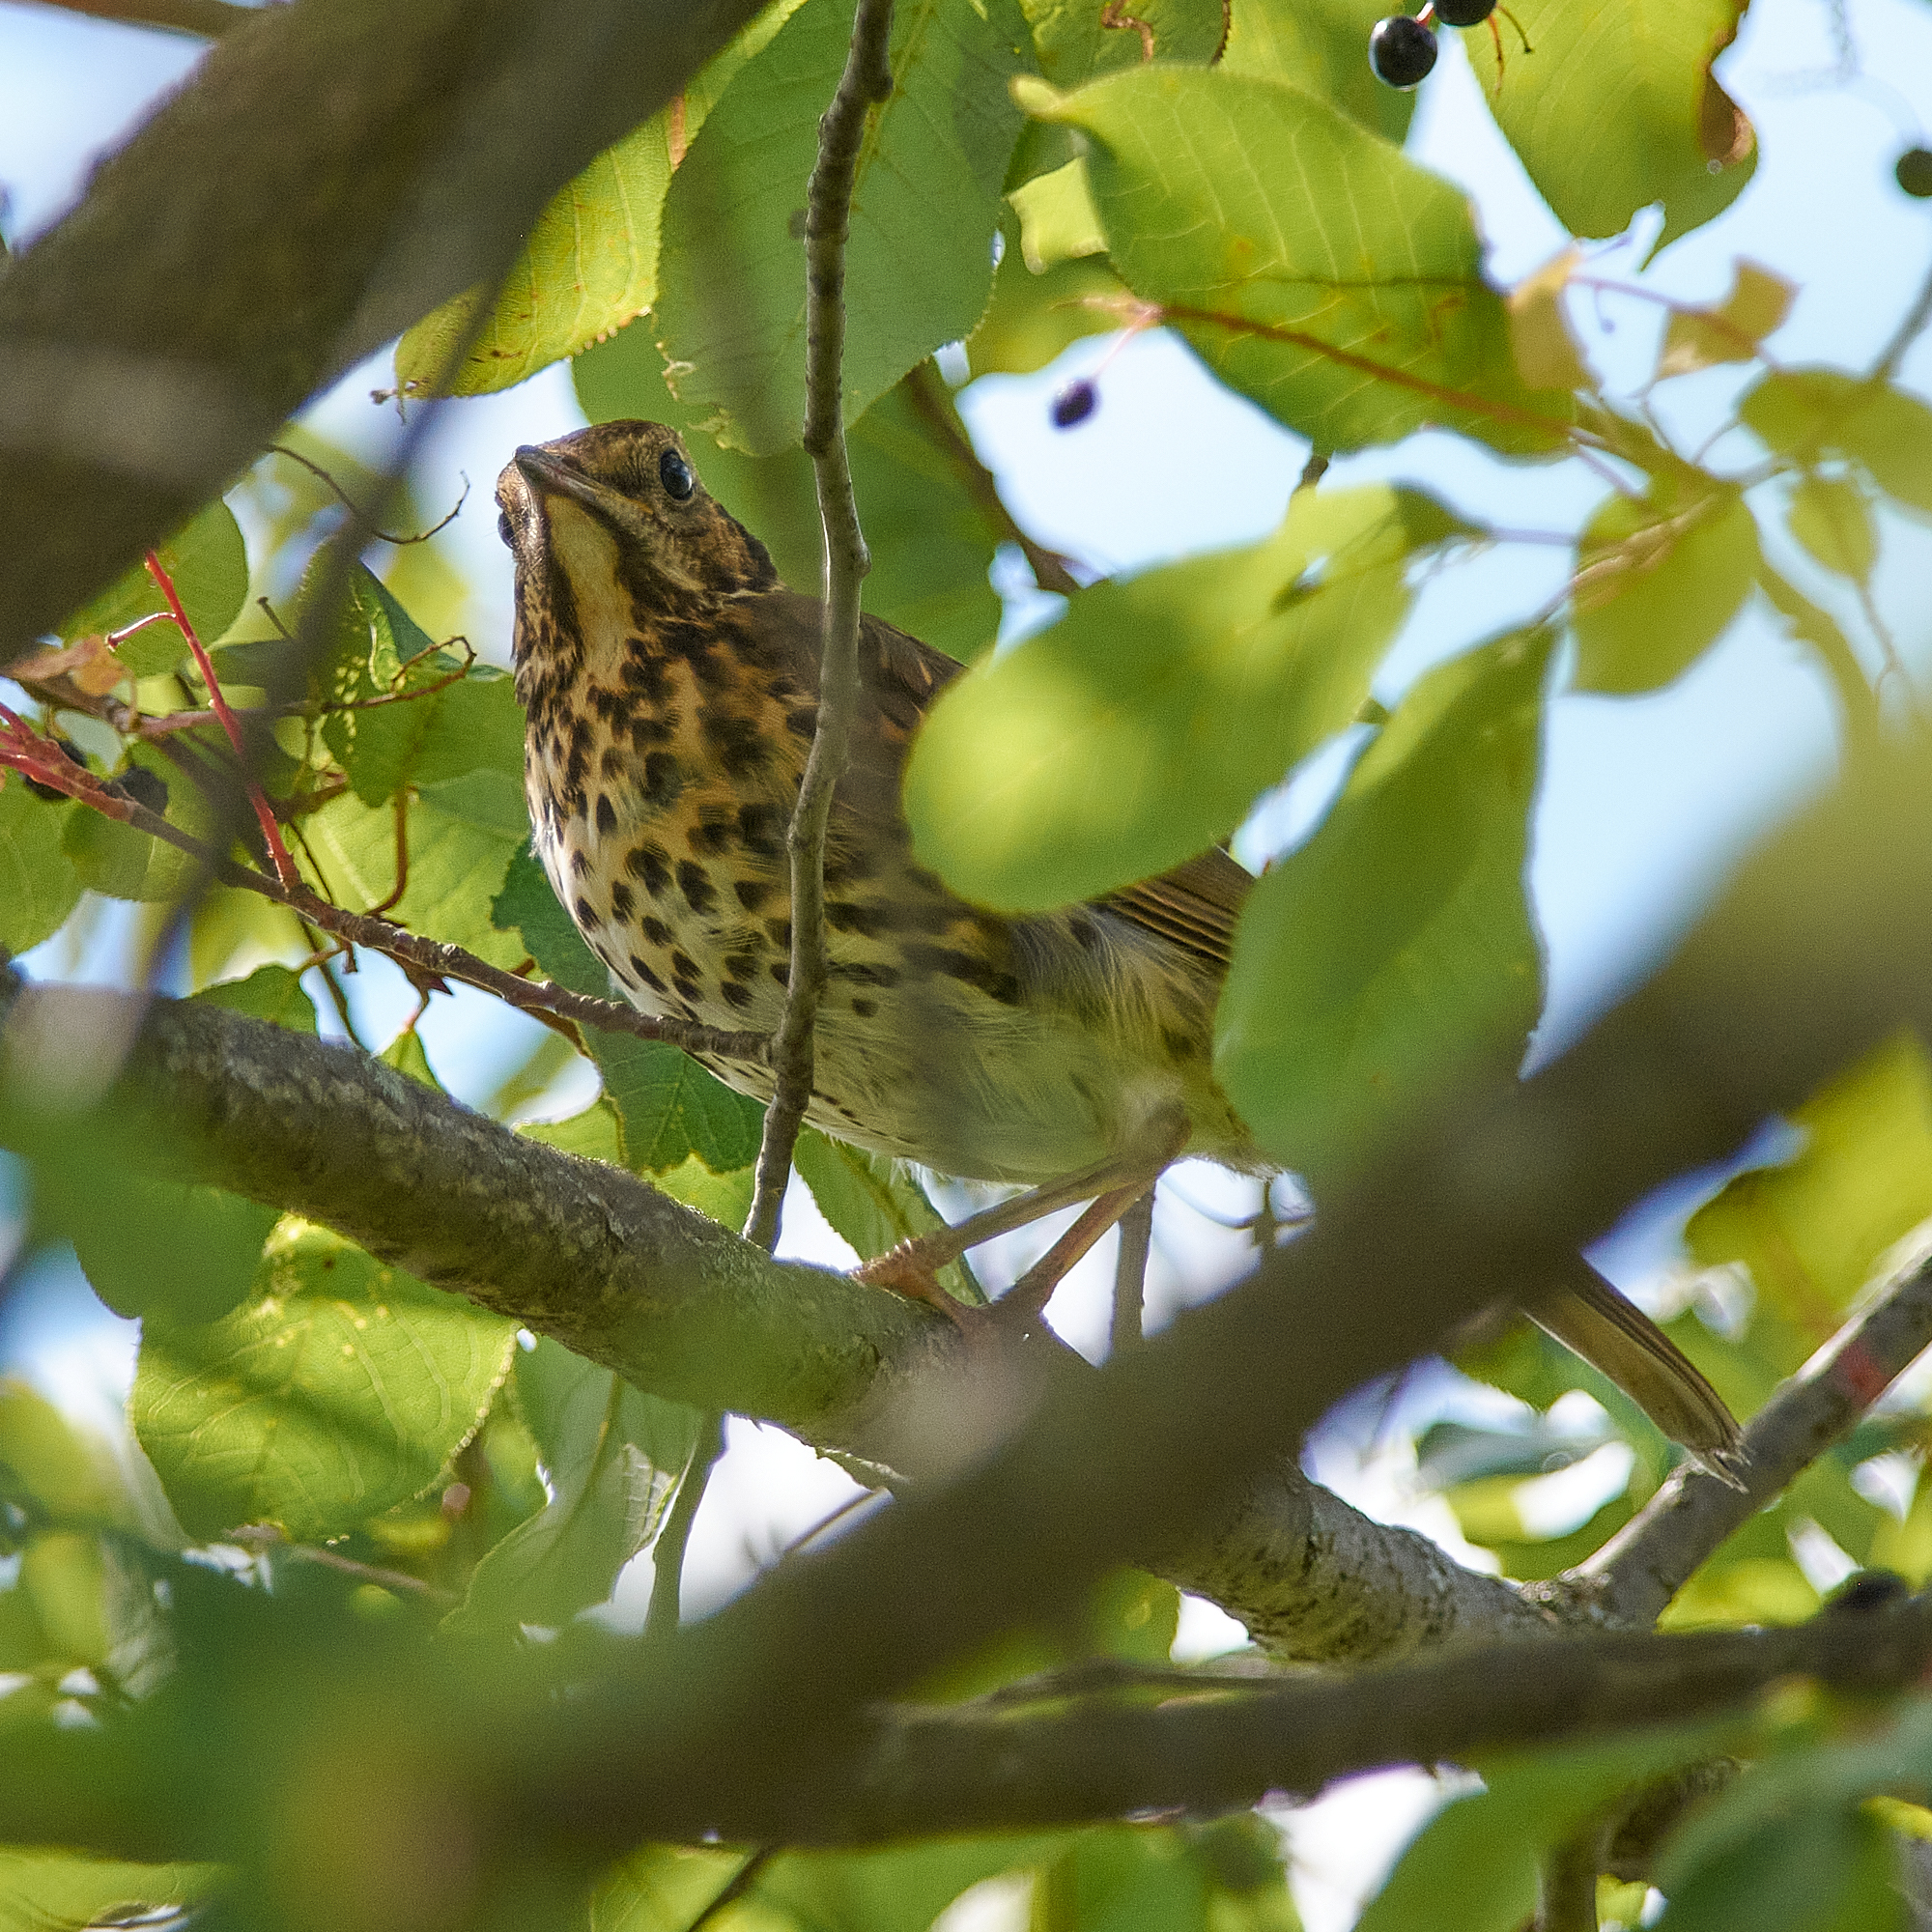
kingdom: Animalia
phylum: Chordata
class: Aves
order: Passeriformes
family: Turdidae
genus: Turdus
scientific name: Turdus philomelos
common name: Song thrush
